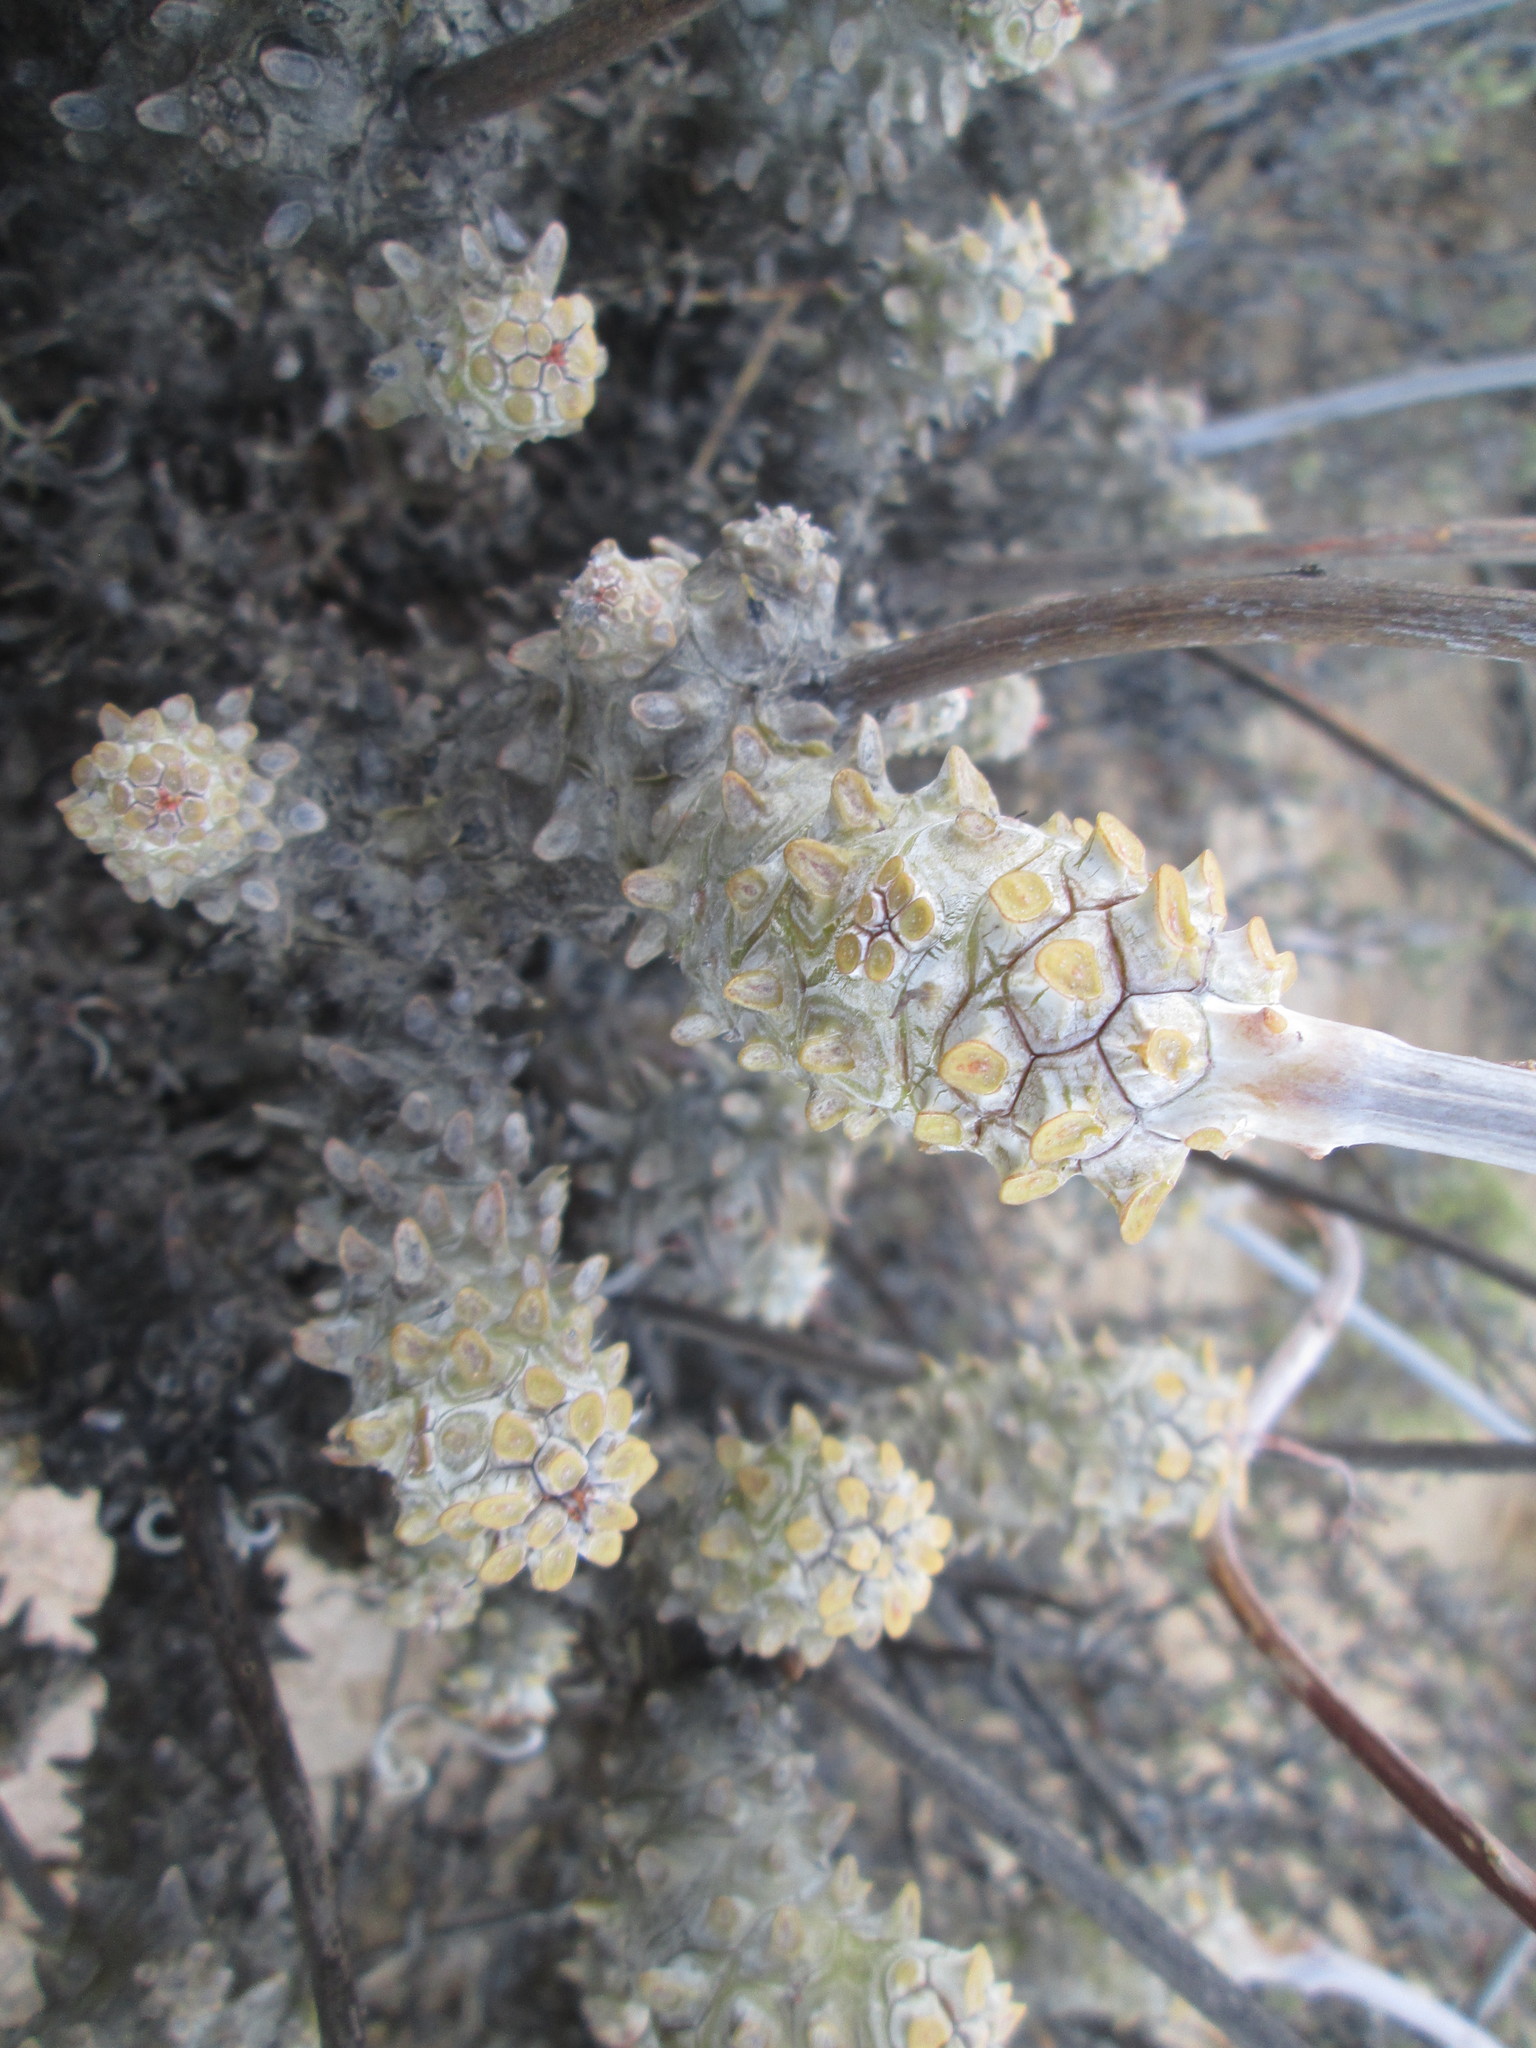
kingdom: Plantae
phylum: Tracheophyta
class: Magnoliopsida
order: Saxifragales
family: Crassulaceae
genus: Tylecodon
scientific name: Tylecodon wallichii
